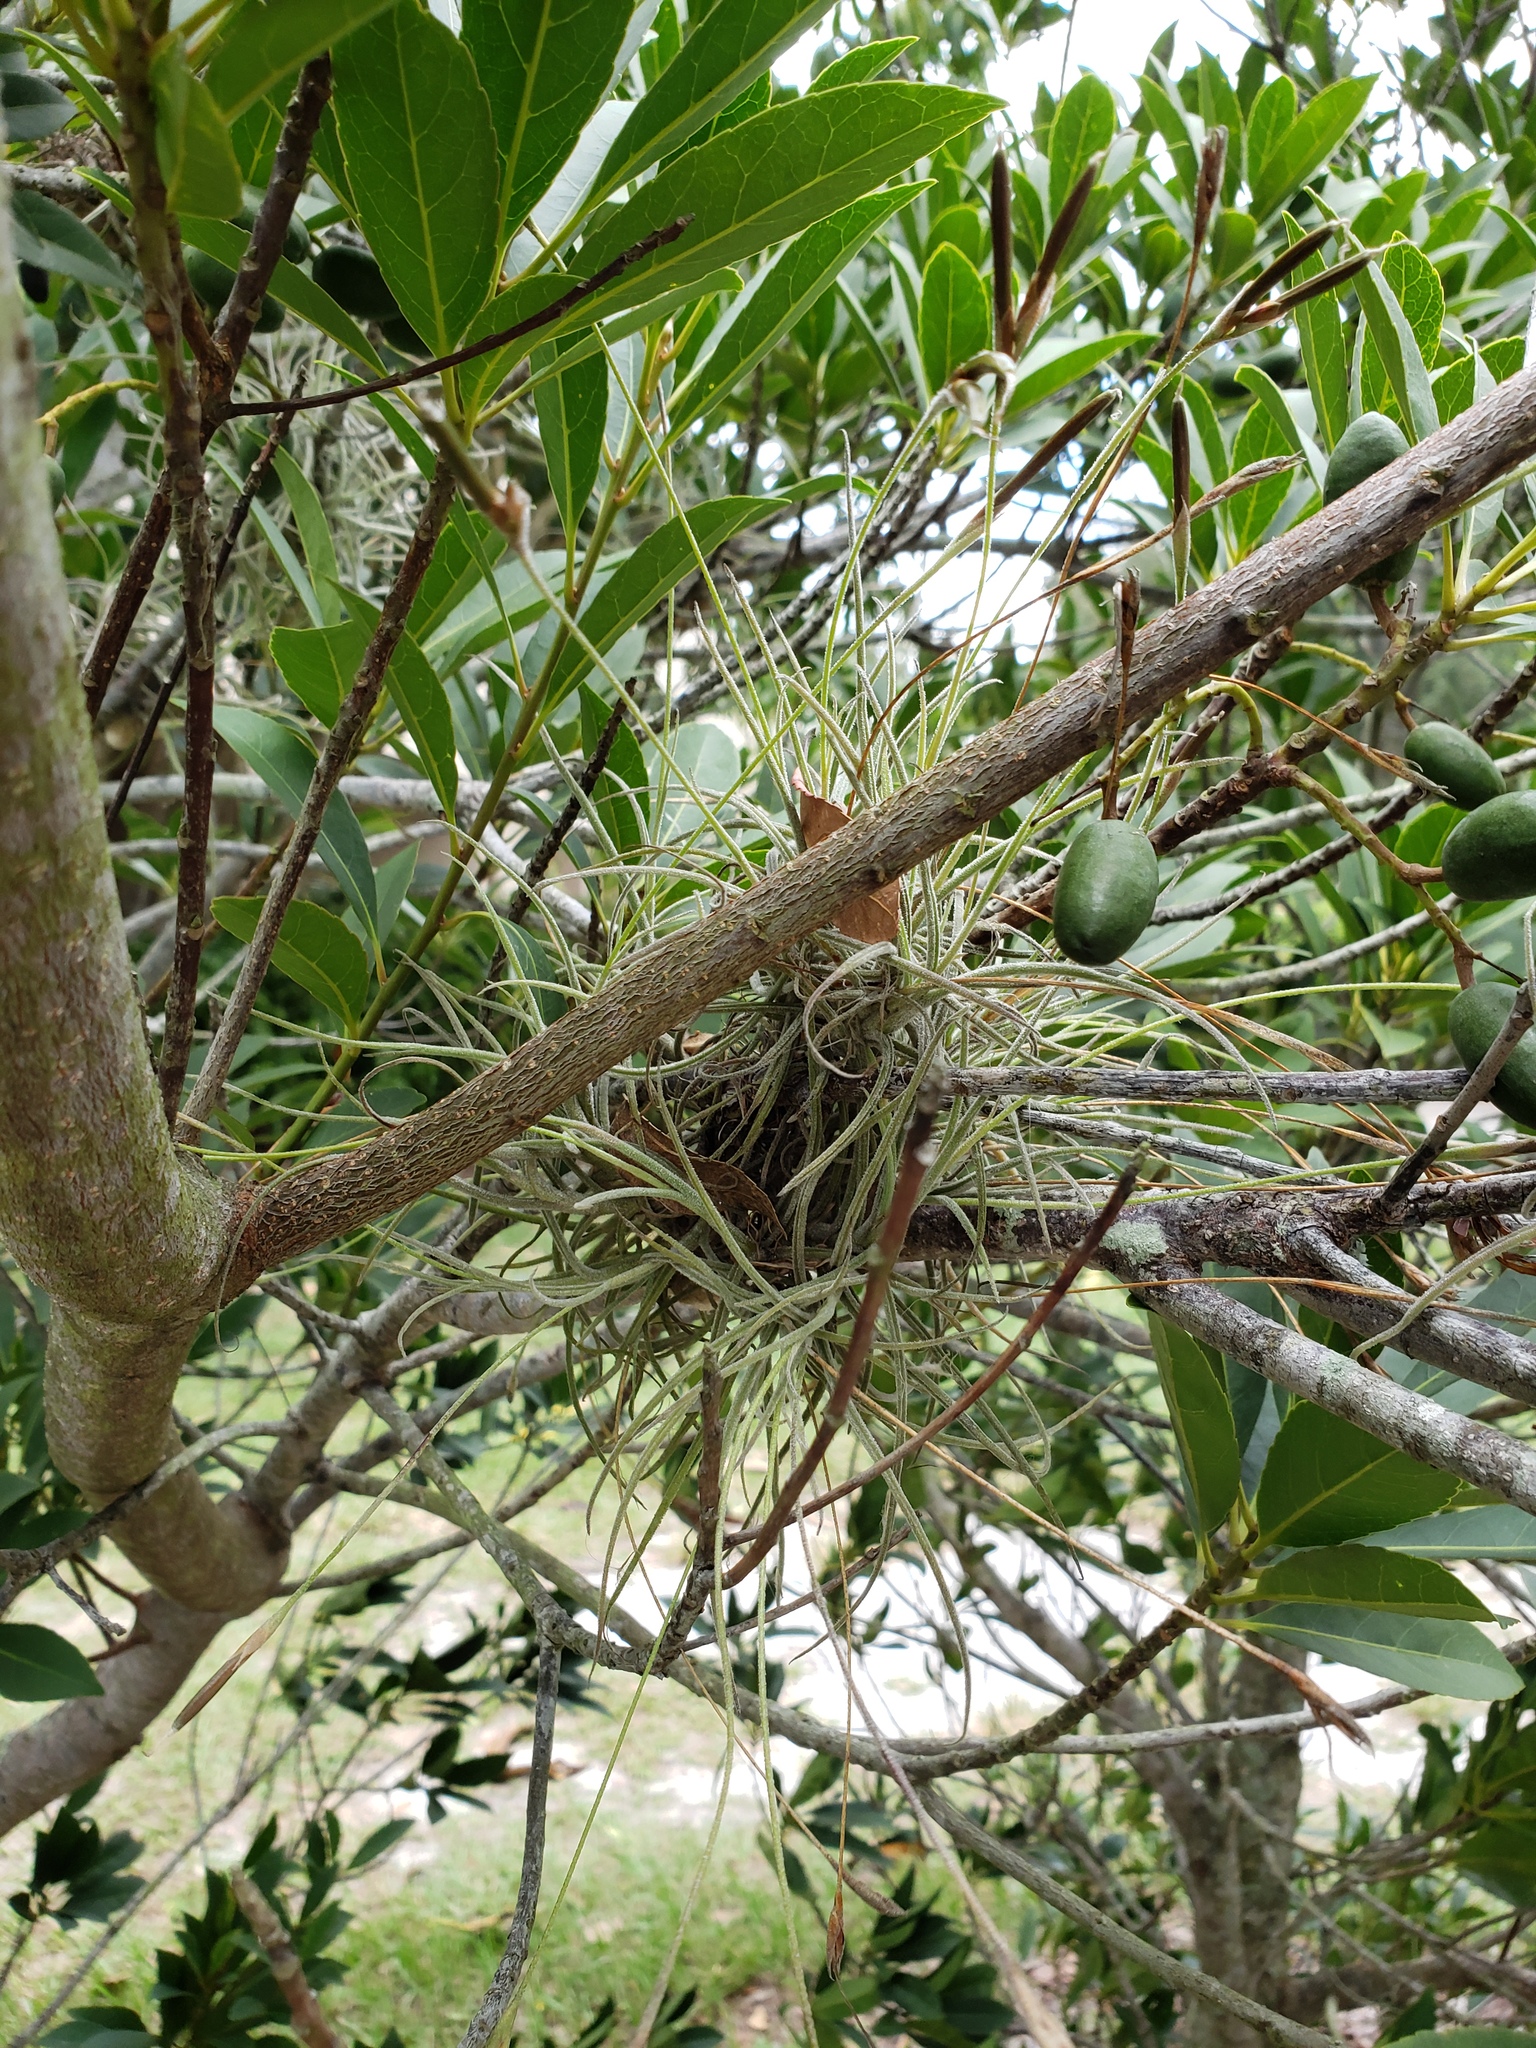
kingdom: Plantae
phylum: Tracheophyta
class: Liliopsida
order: Poales
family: Bromeliaceae
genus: Tillandsia
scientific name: Tillandsia recurvata
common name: Small ballmoss
